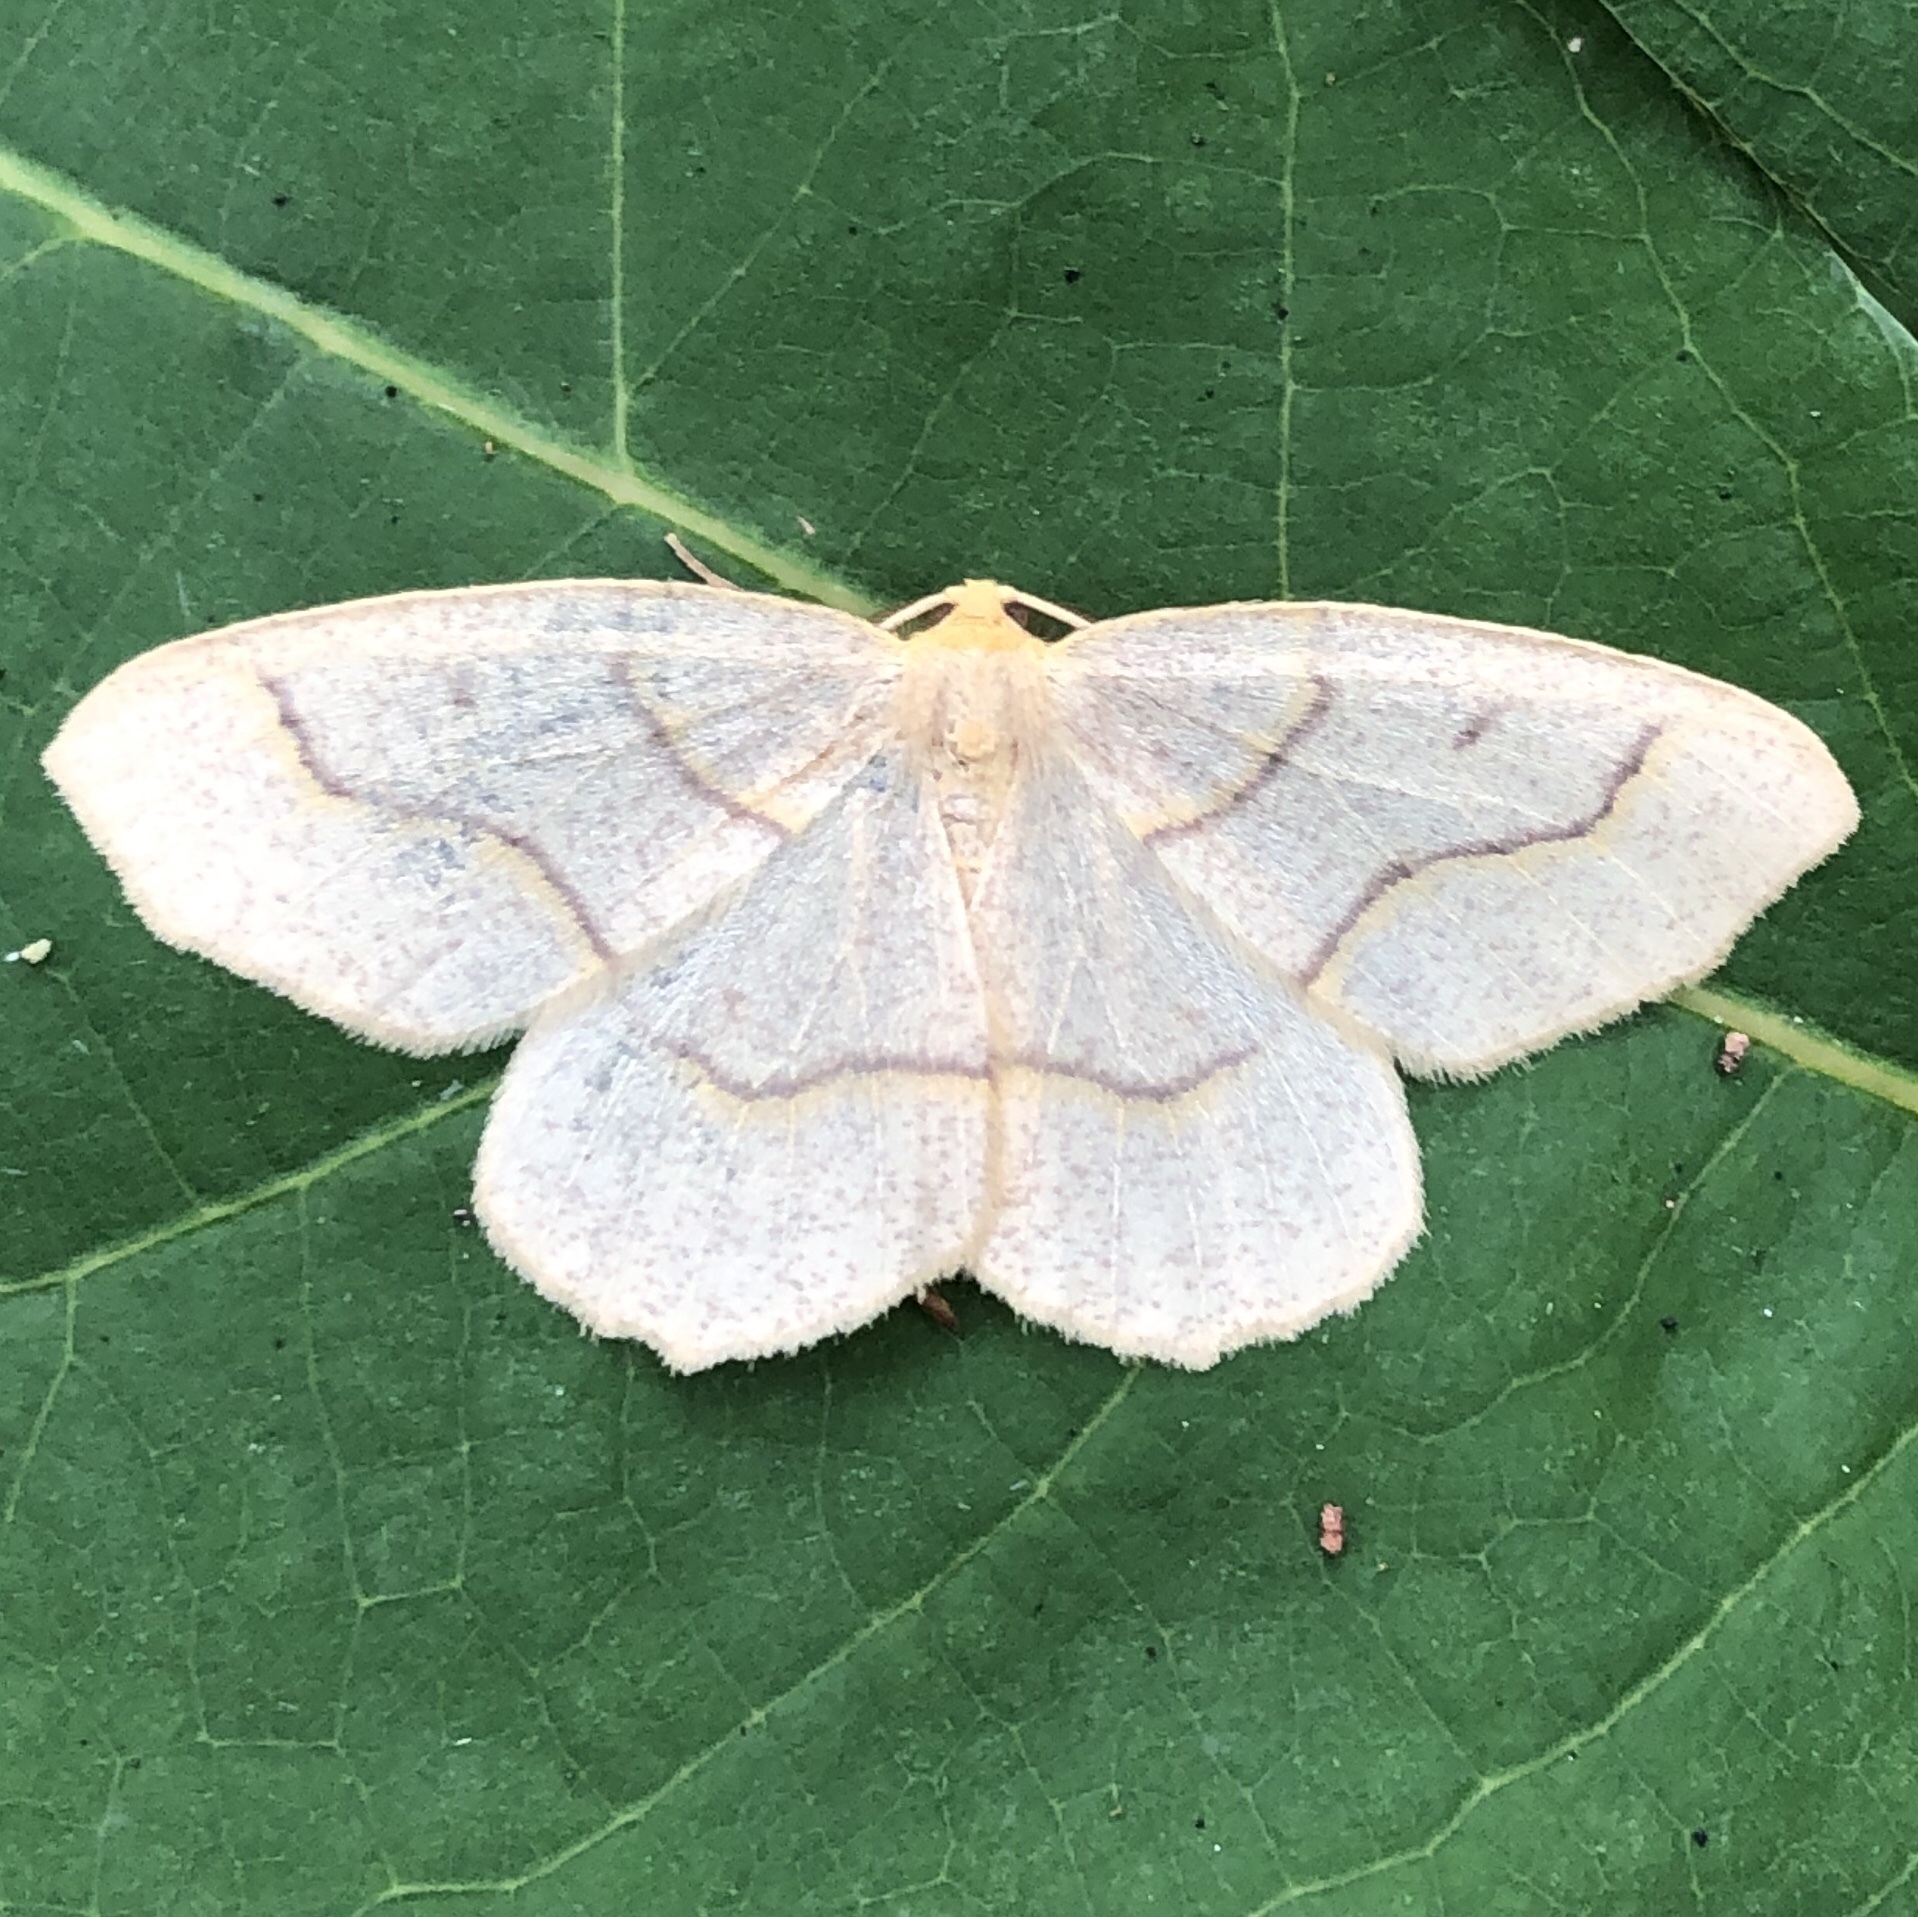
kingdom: Animalia
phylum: Arthropoda
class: Insecta
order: Lepidoptera
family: Geometridae
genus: Lambdina
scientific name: Lambdina fiscellaria
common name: Hemlock looper
